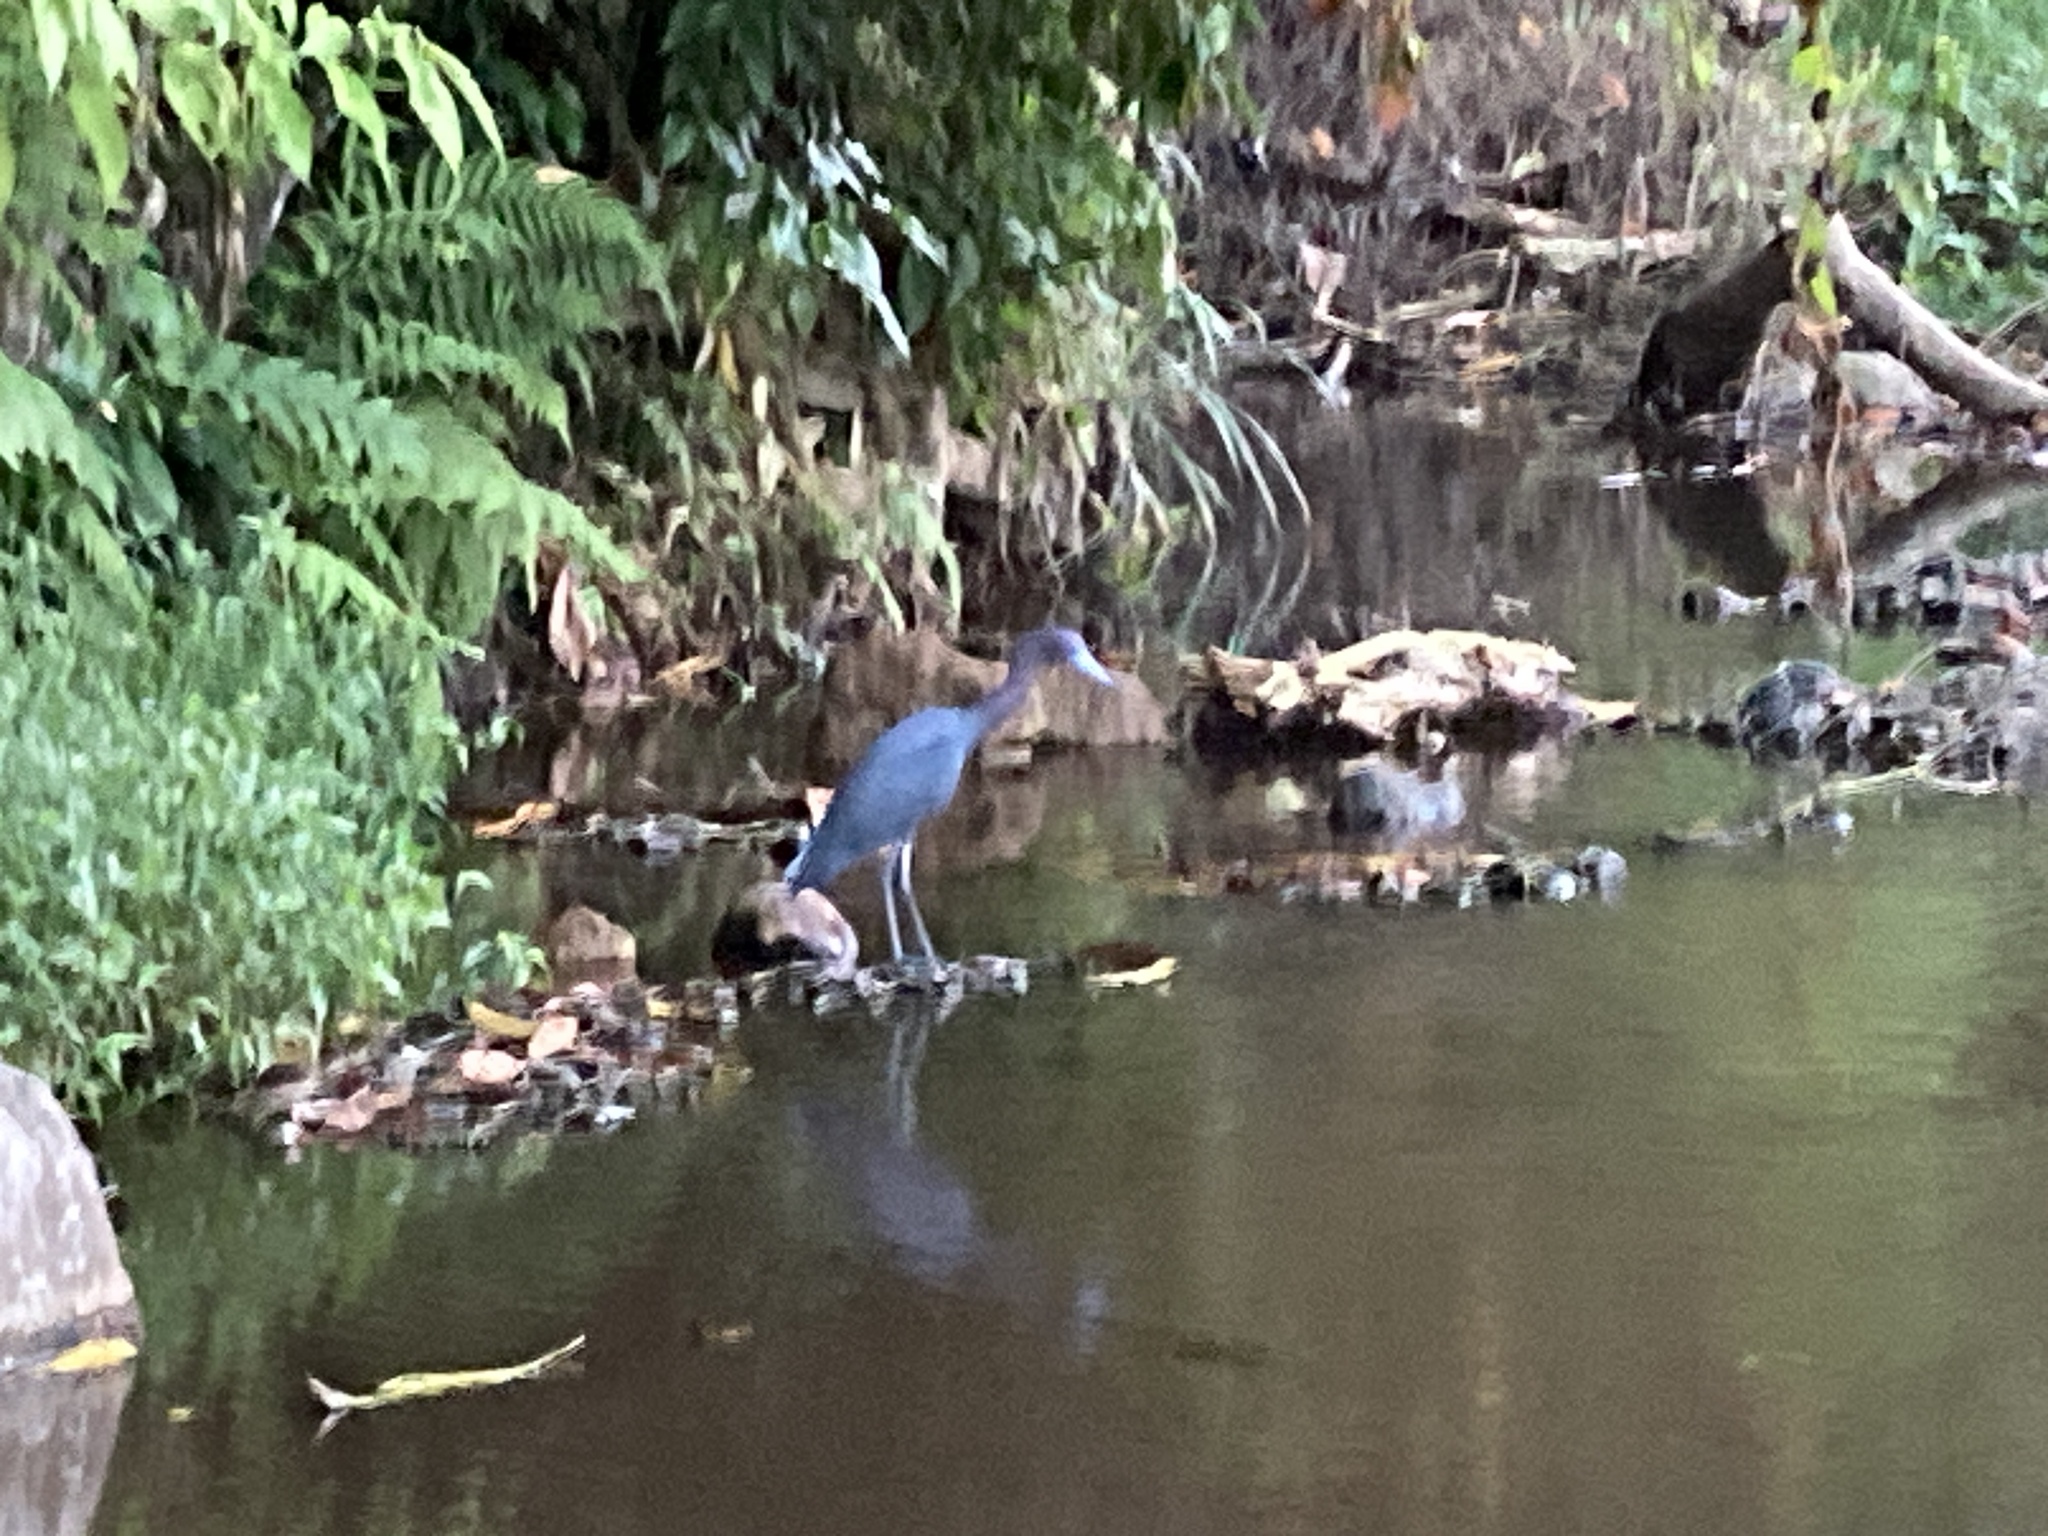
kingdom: Animalia
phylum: Chordata
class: Aves
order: Pelecaniformes
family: Ardeidae
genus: Egretta
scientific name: Egretta caerulea
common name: Little blue heron
